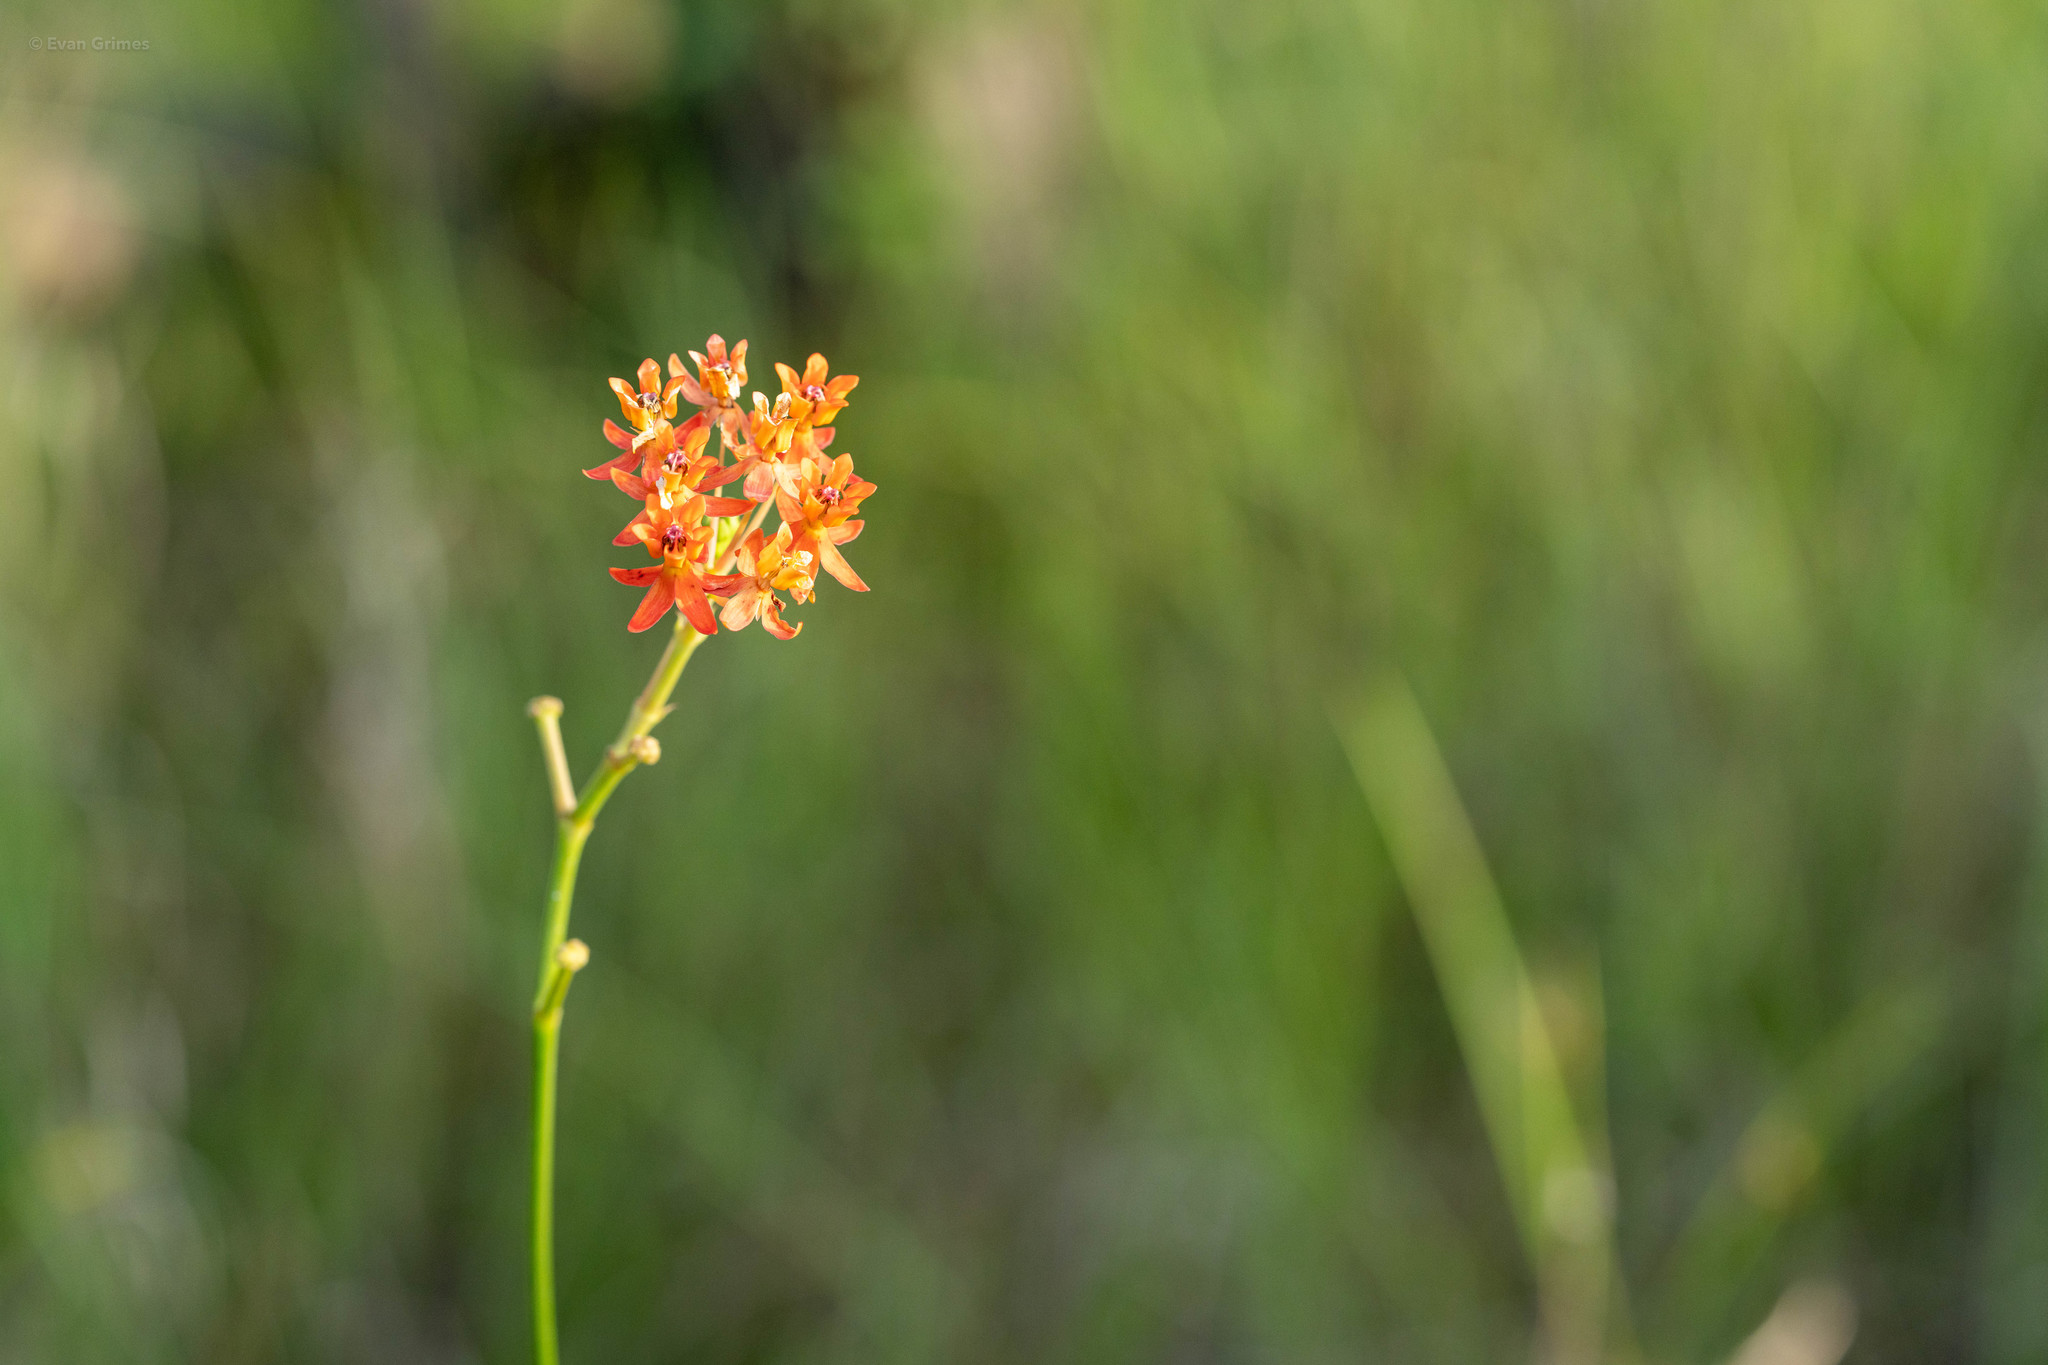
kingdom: Plantae
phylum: Tracheophyta
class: Magnoliopsida
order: Gentianales
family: Apocynaceae
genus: Asclepias
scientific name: Asclepias lanceolata
